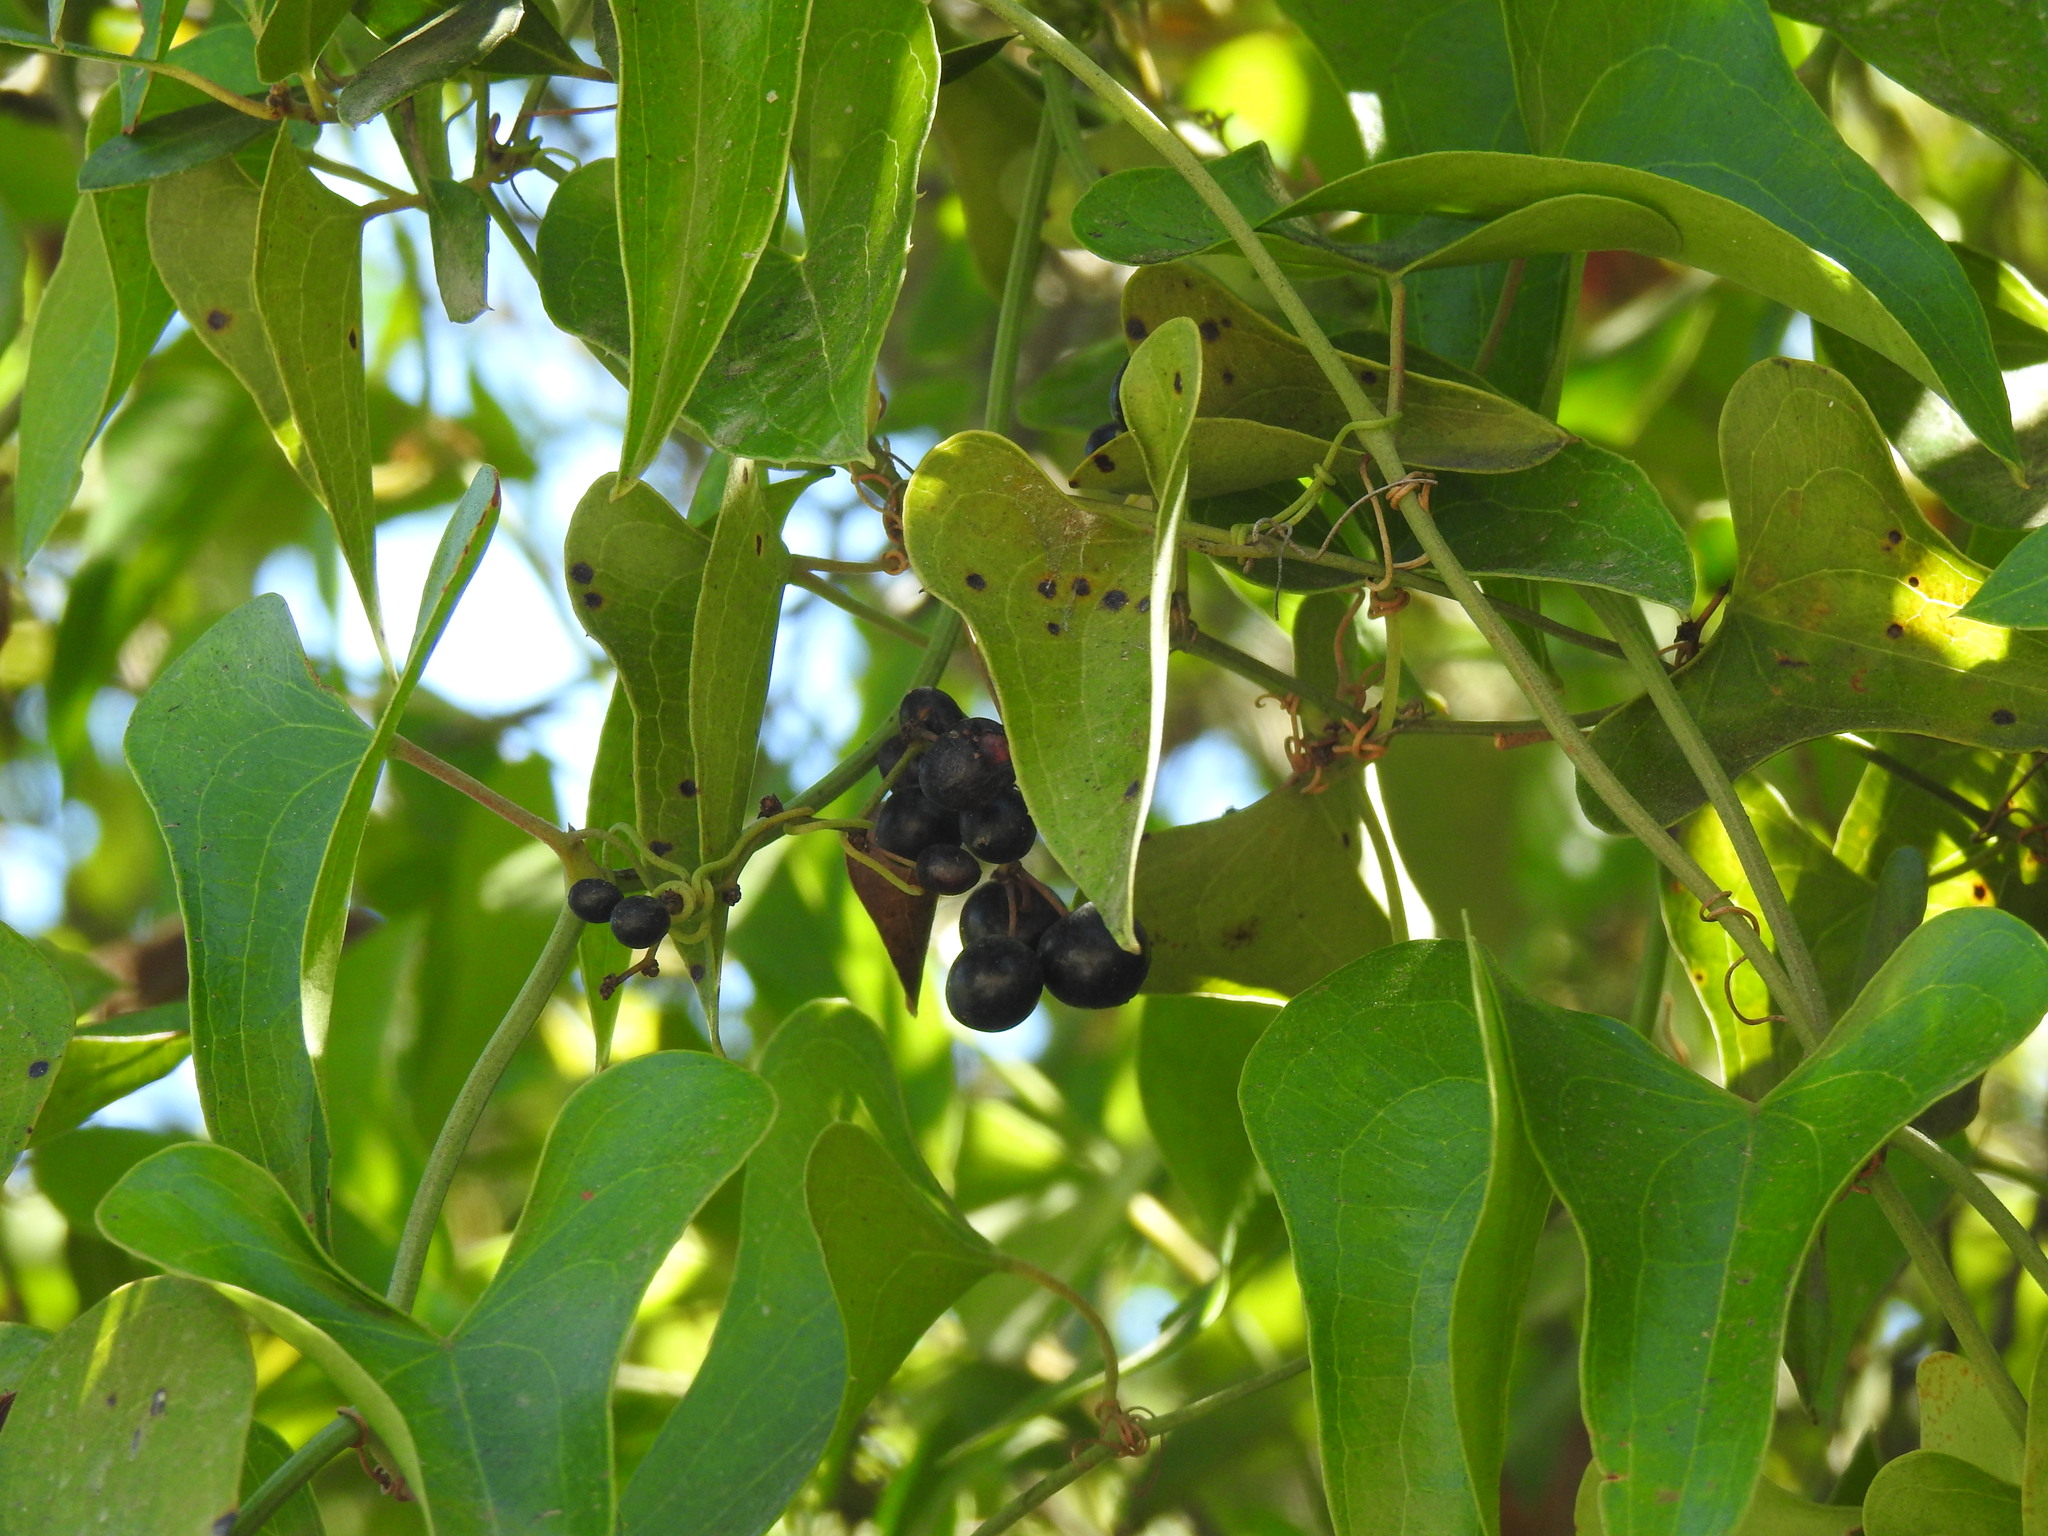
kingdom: Plantae
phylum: Tracheophyta
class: Liliopsida
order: Liliales
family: Smilacaceae
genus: Smilax
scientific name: Smilax aspera
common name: Common smilax
